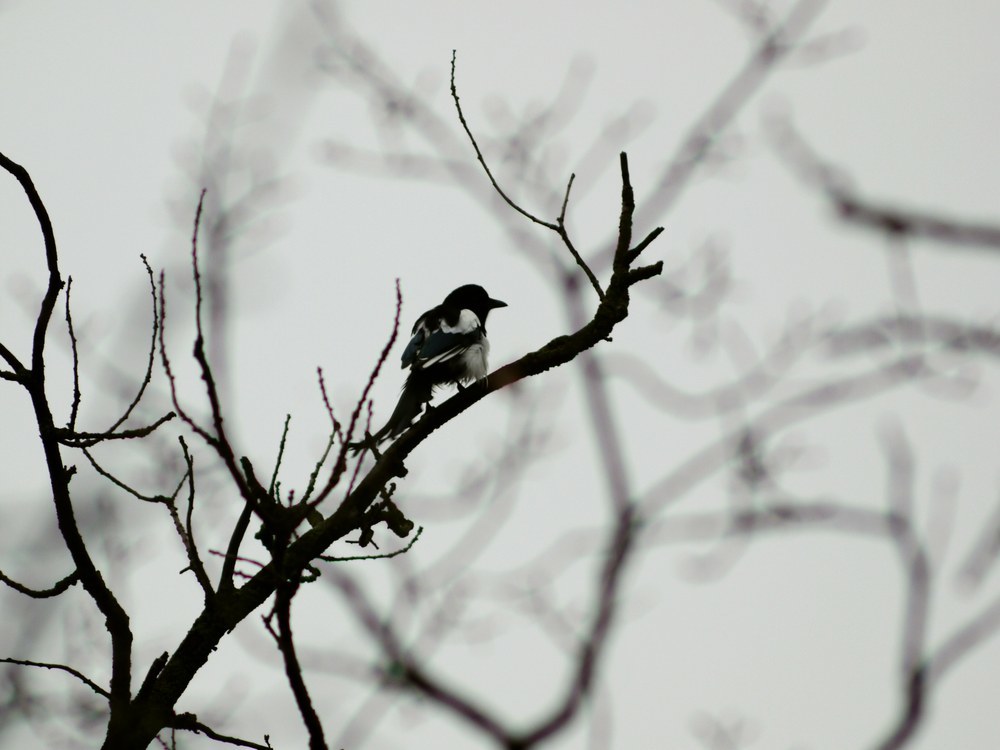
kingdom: Animalia
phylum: Chordata
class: Aves
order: Passeriformes
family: Corvidae
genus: Pica
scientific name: Pica pica
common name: Eurasian magpie
